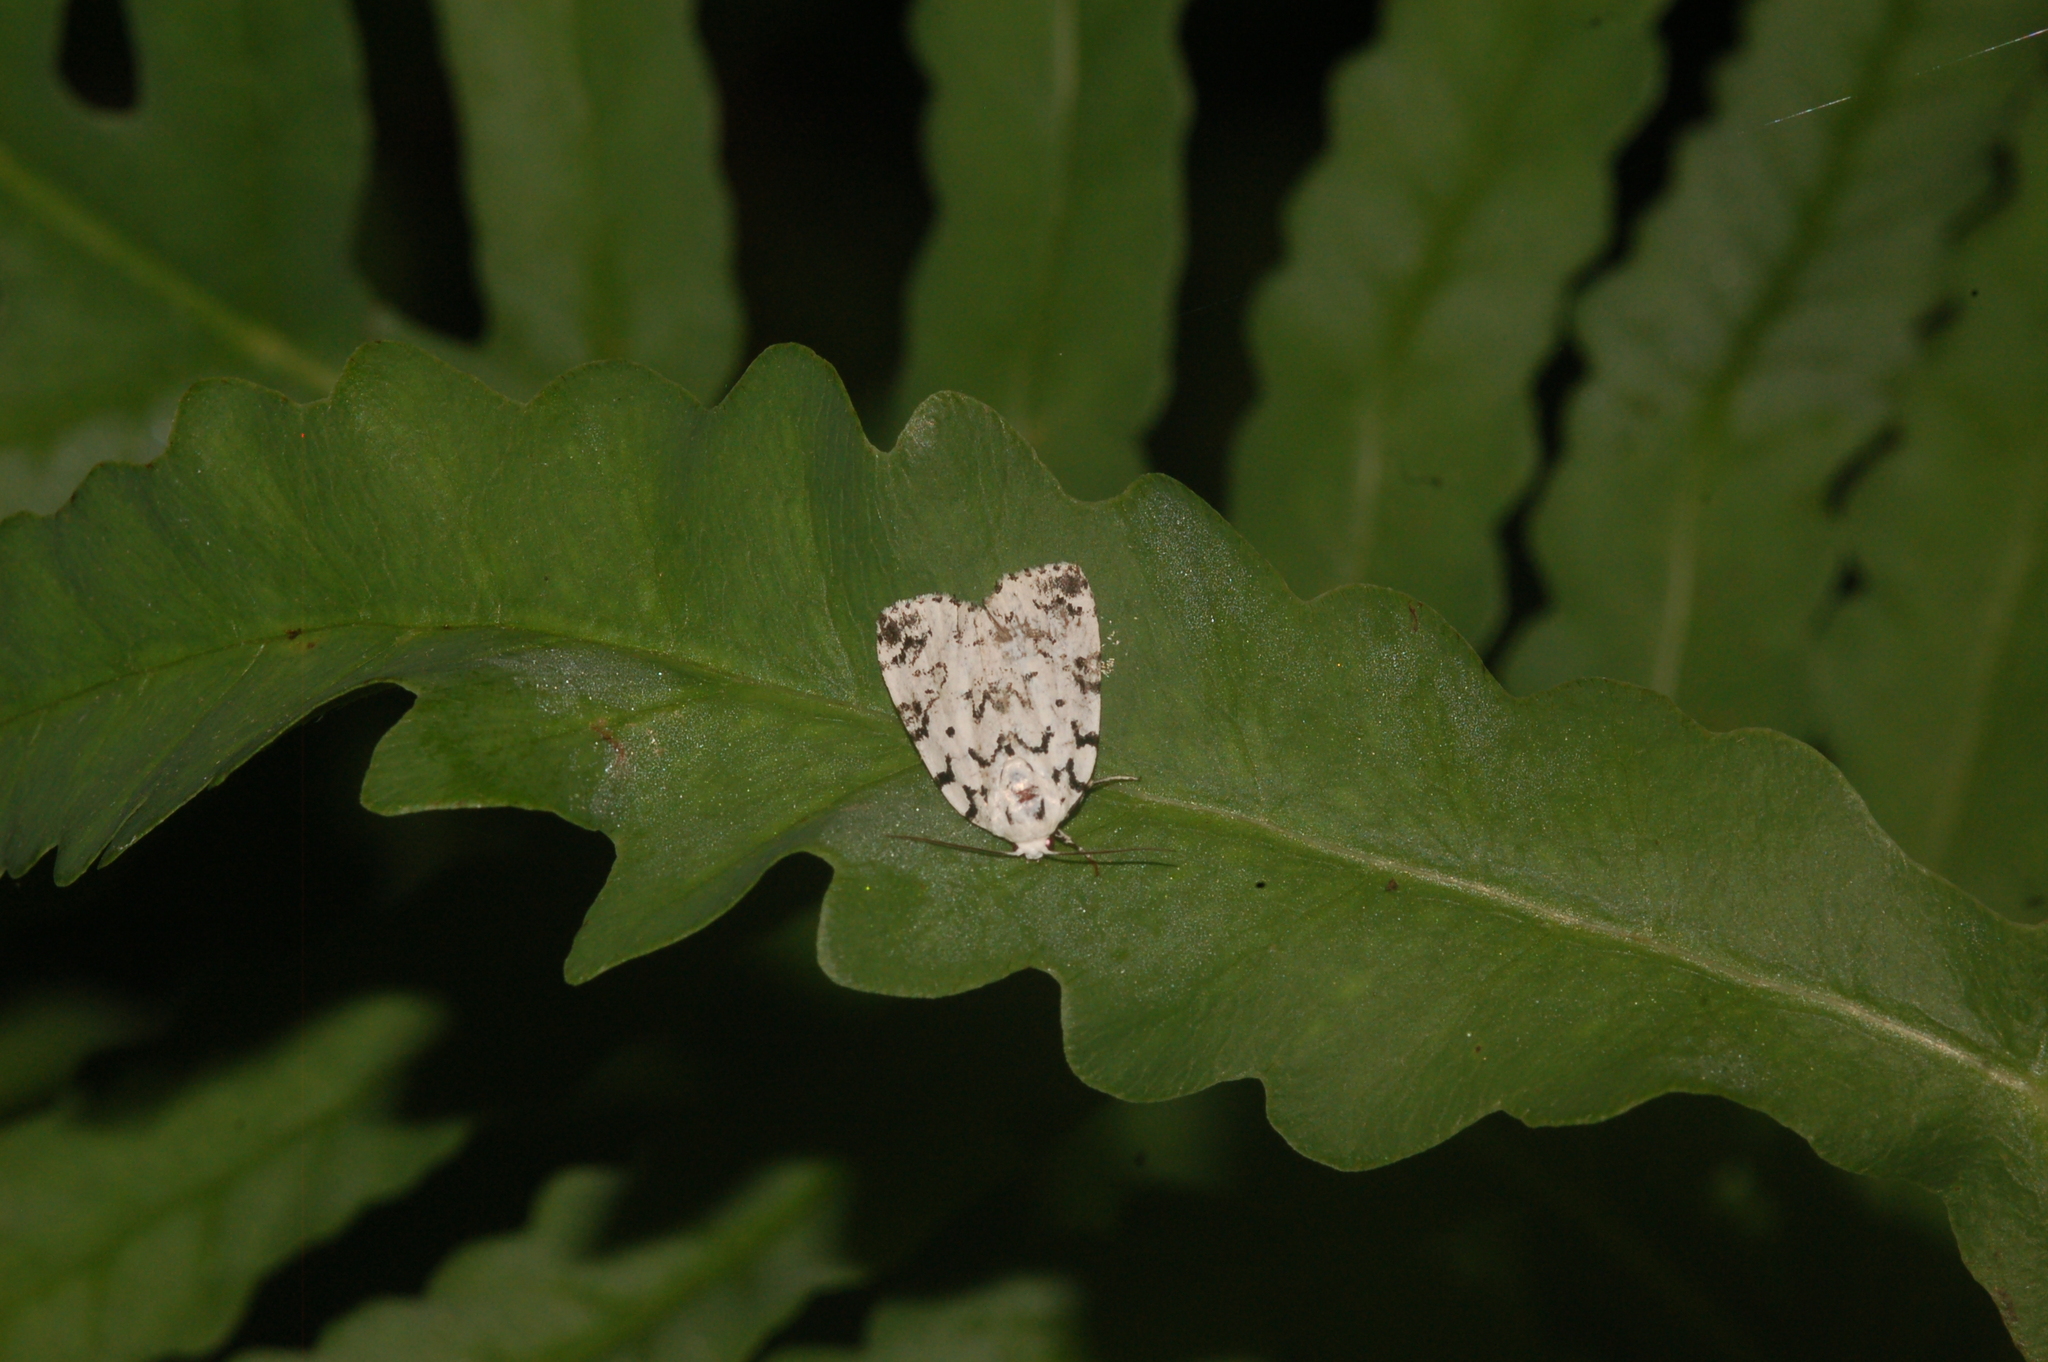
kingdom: Animalia
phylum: Arthropoda
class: Insecta
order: Lepidoptera
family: Noctuidae
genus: Polygrammate
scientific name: Polygrammate hebraeicum
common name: Hebrew moth
